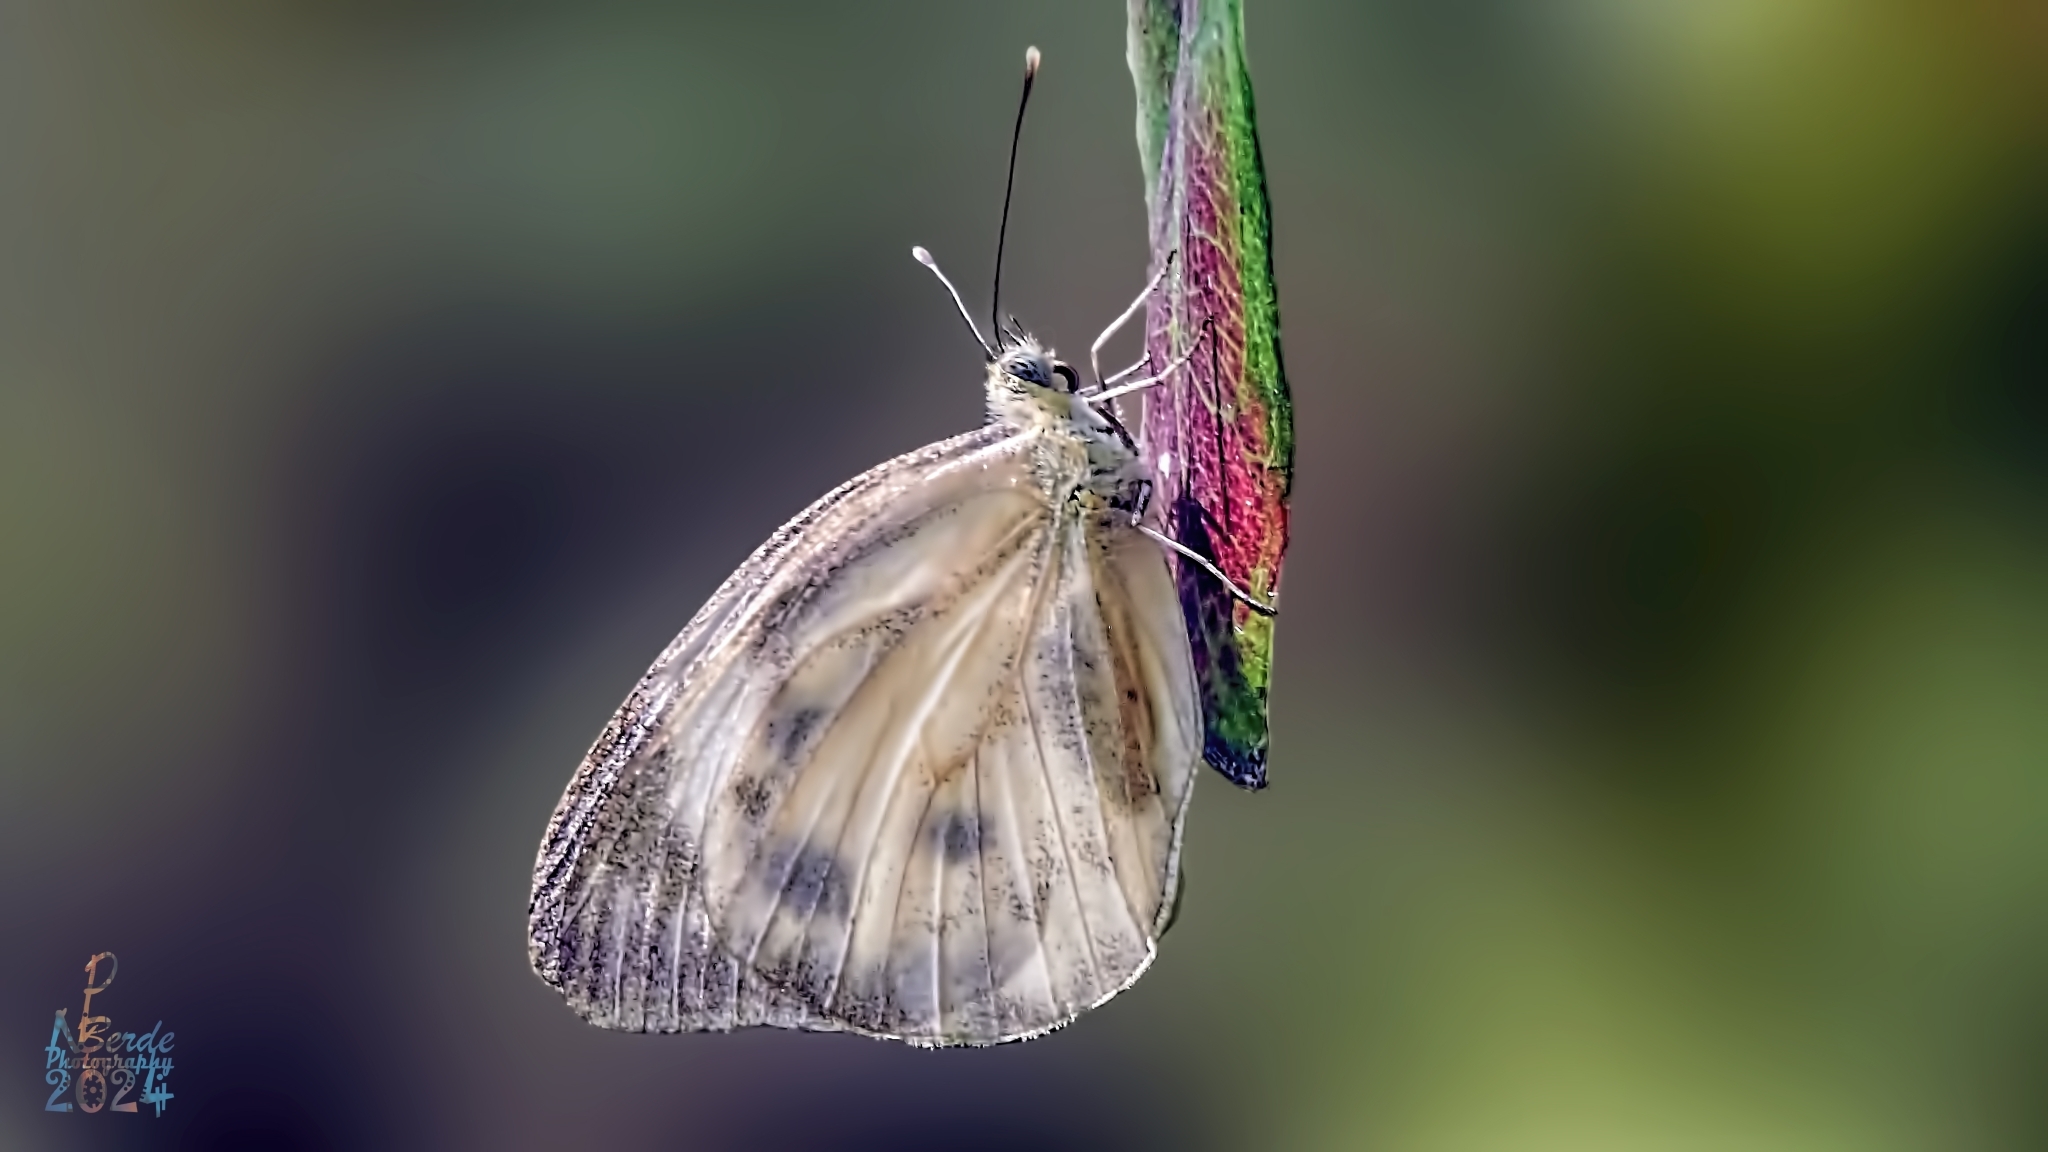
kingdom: Animalia
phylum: Arthropoda
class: Insecta
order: Lepidoptera
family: Pieridae
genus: Cepora
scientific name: Cepora nerissa
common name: Common gull
